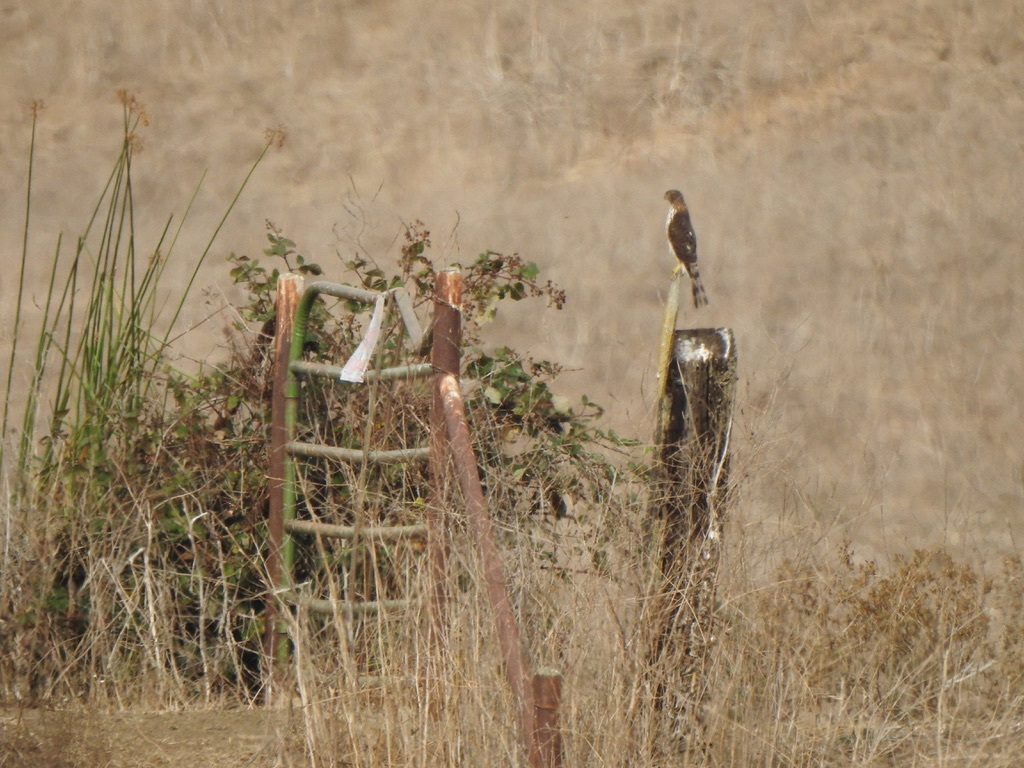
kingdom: Animalia
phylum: Chordata
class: Aves
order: Accipitriformes
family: Accipitridae
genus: Accipiter
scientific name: Accipiter cooperii
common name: Cooper's hawk
